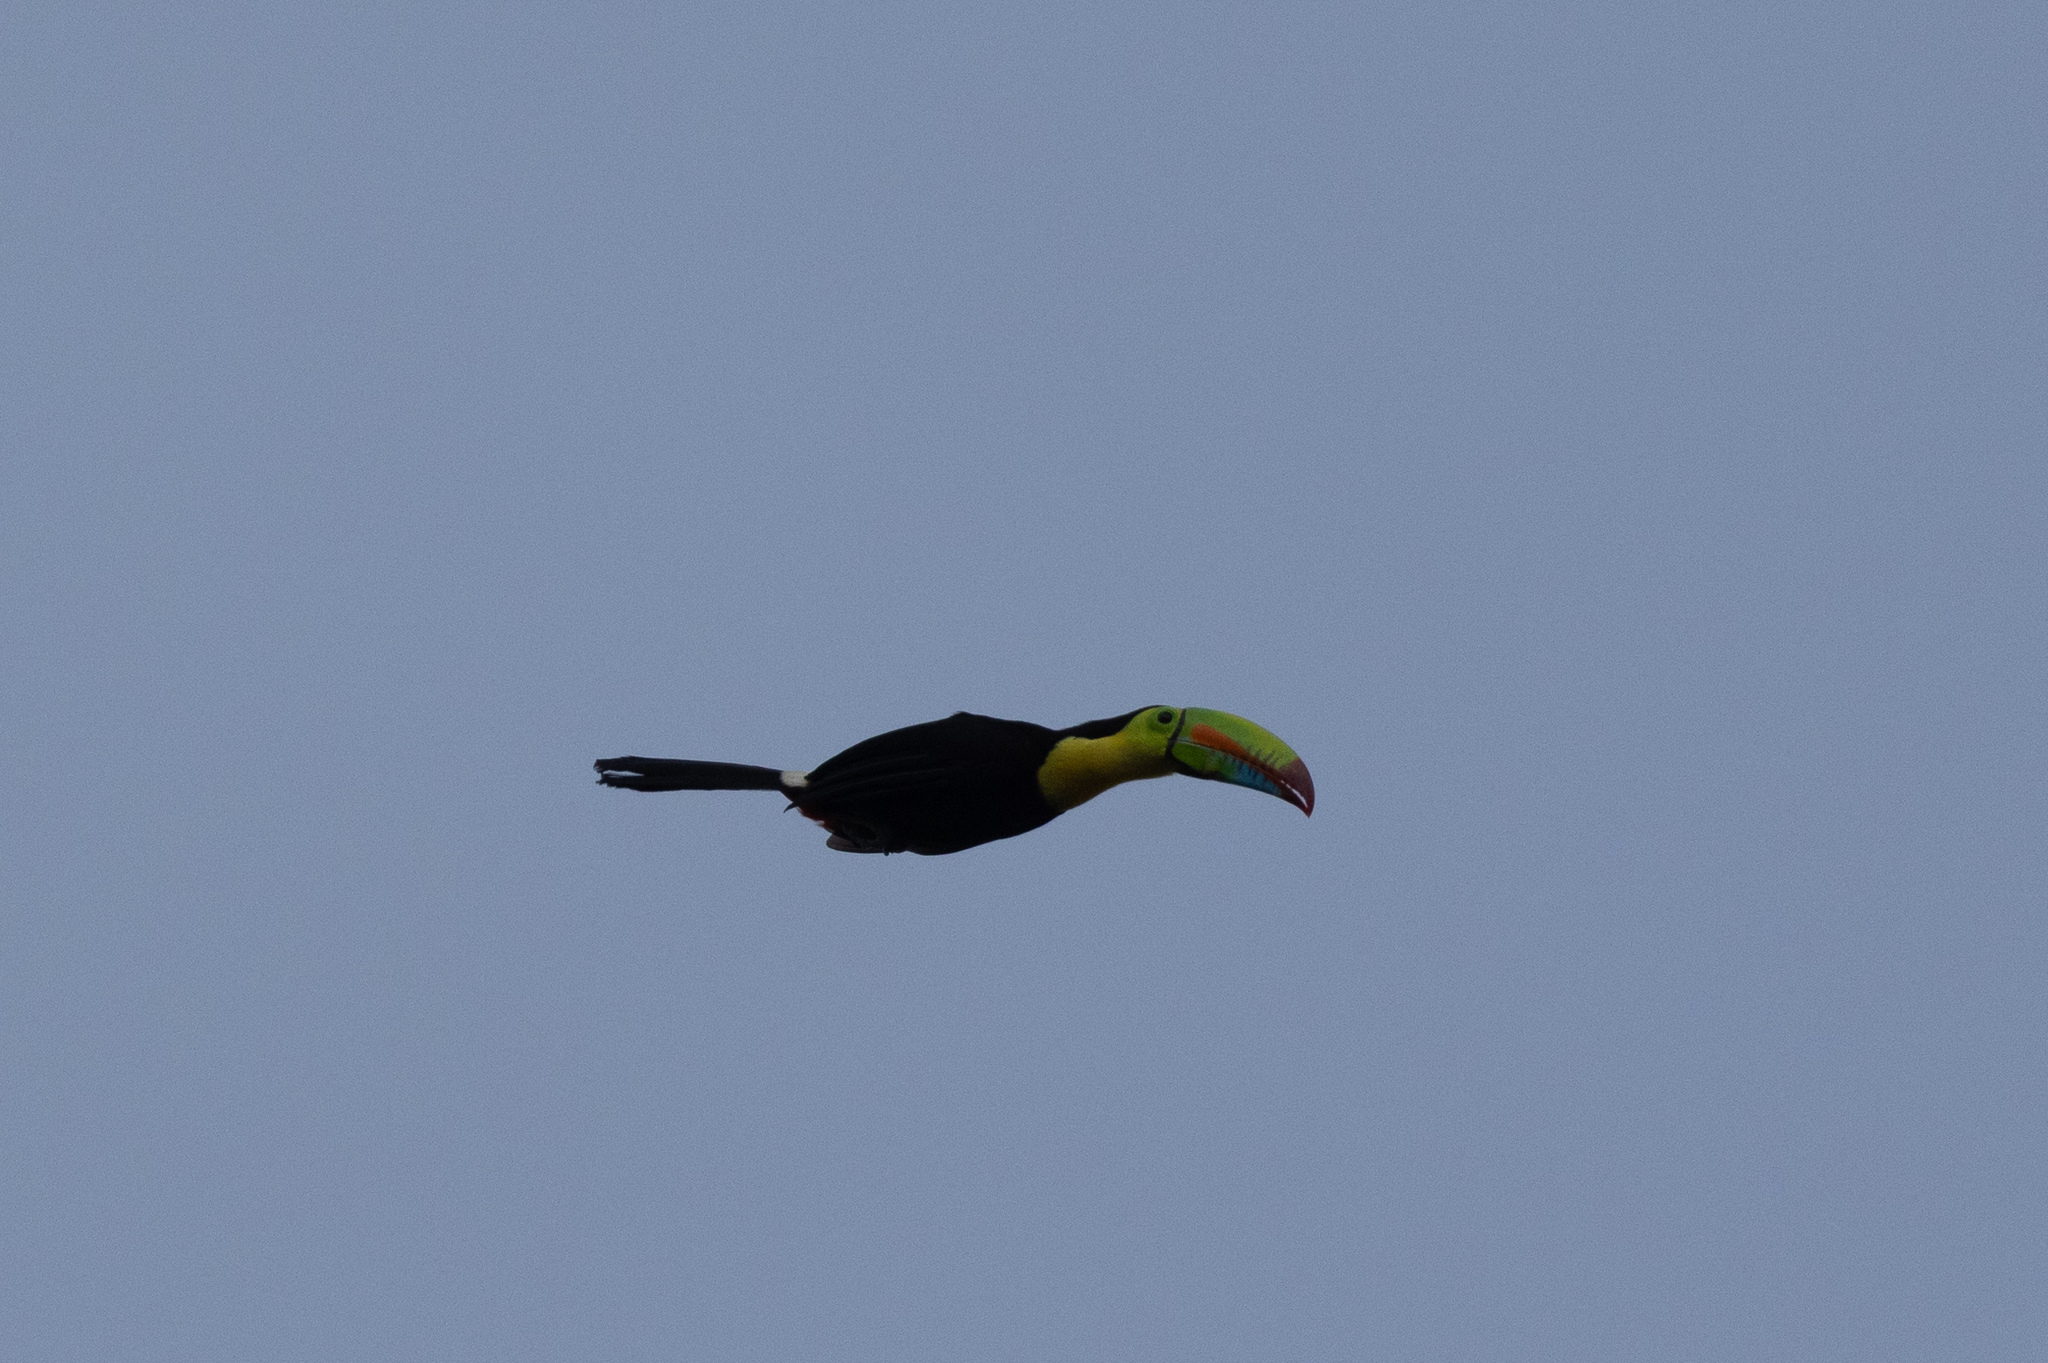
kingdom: Animalia
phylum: Chordata
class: Aves
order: Piciformes
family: Ramphastidae
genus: Ramphastos
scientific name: Ramphastos sulfuratus
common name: Keel-billed toucan
